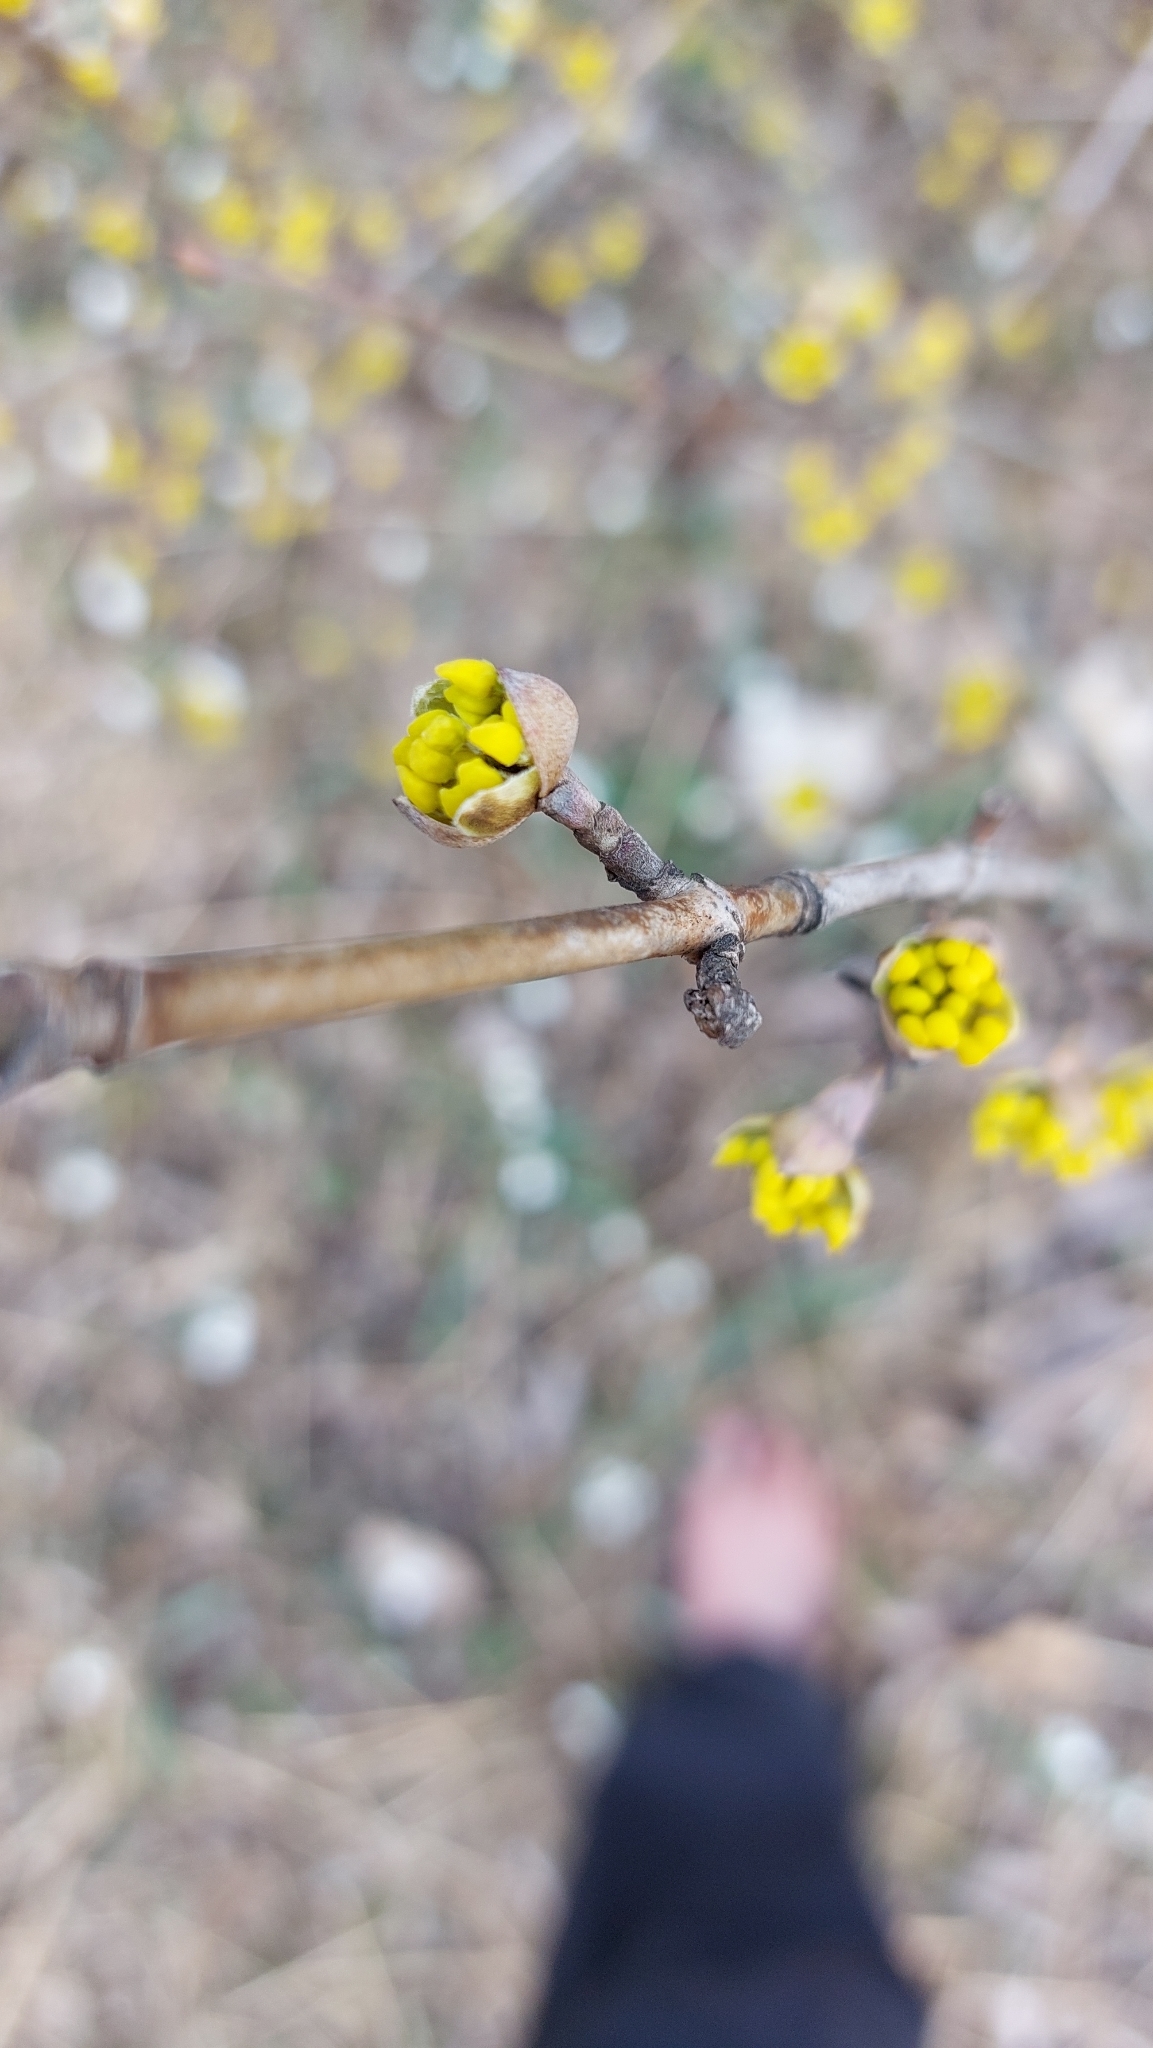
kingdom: Plantae
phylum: Tracheophyta
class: Magnoliopsida
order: Cornales
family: Cornaceae
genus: Cornus
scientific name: Cornus mas
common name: Cornelian-cherry
